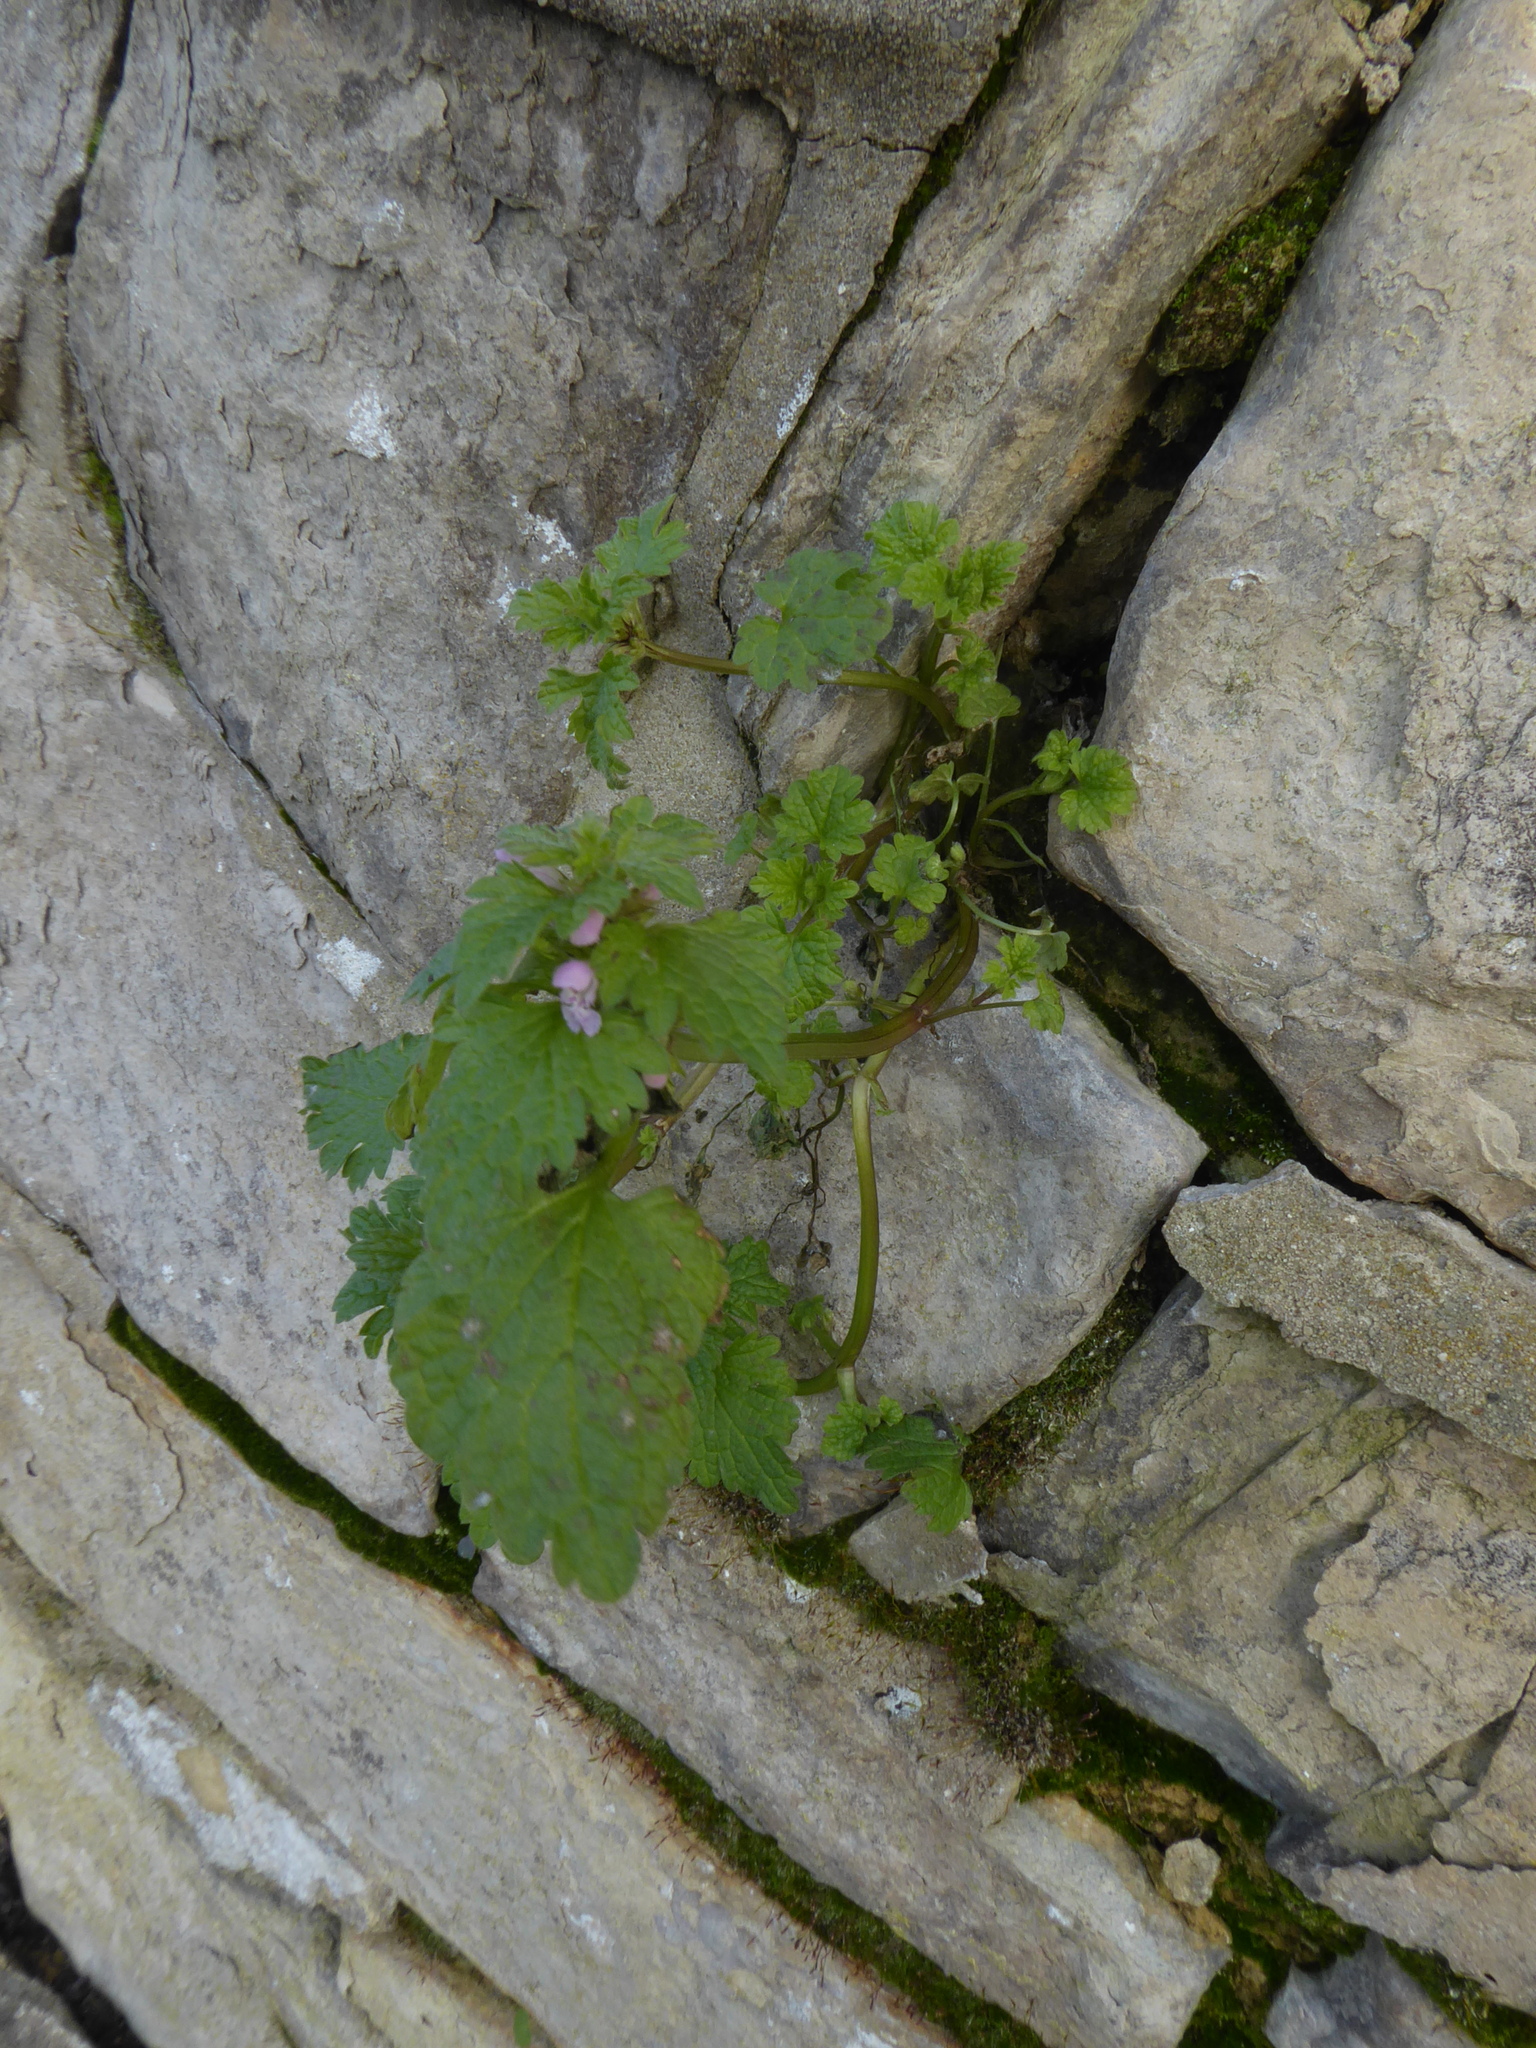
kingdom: Plantae
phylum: Tracheophyta
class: Magnoliopsida
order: Lamiales
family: Lamiaceae
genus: Lamium
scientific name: Lamium purpureum
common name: Red dead-nettle
